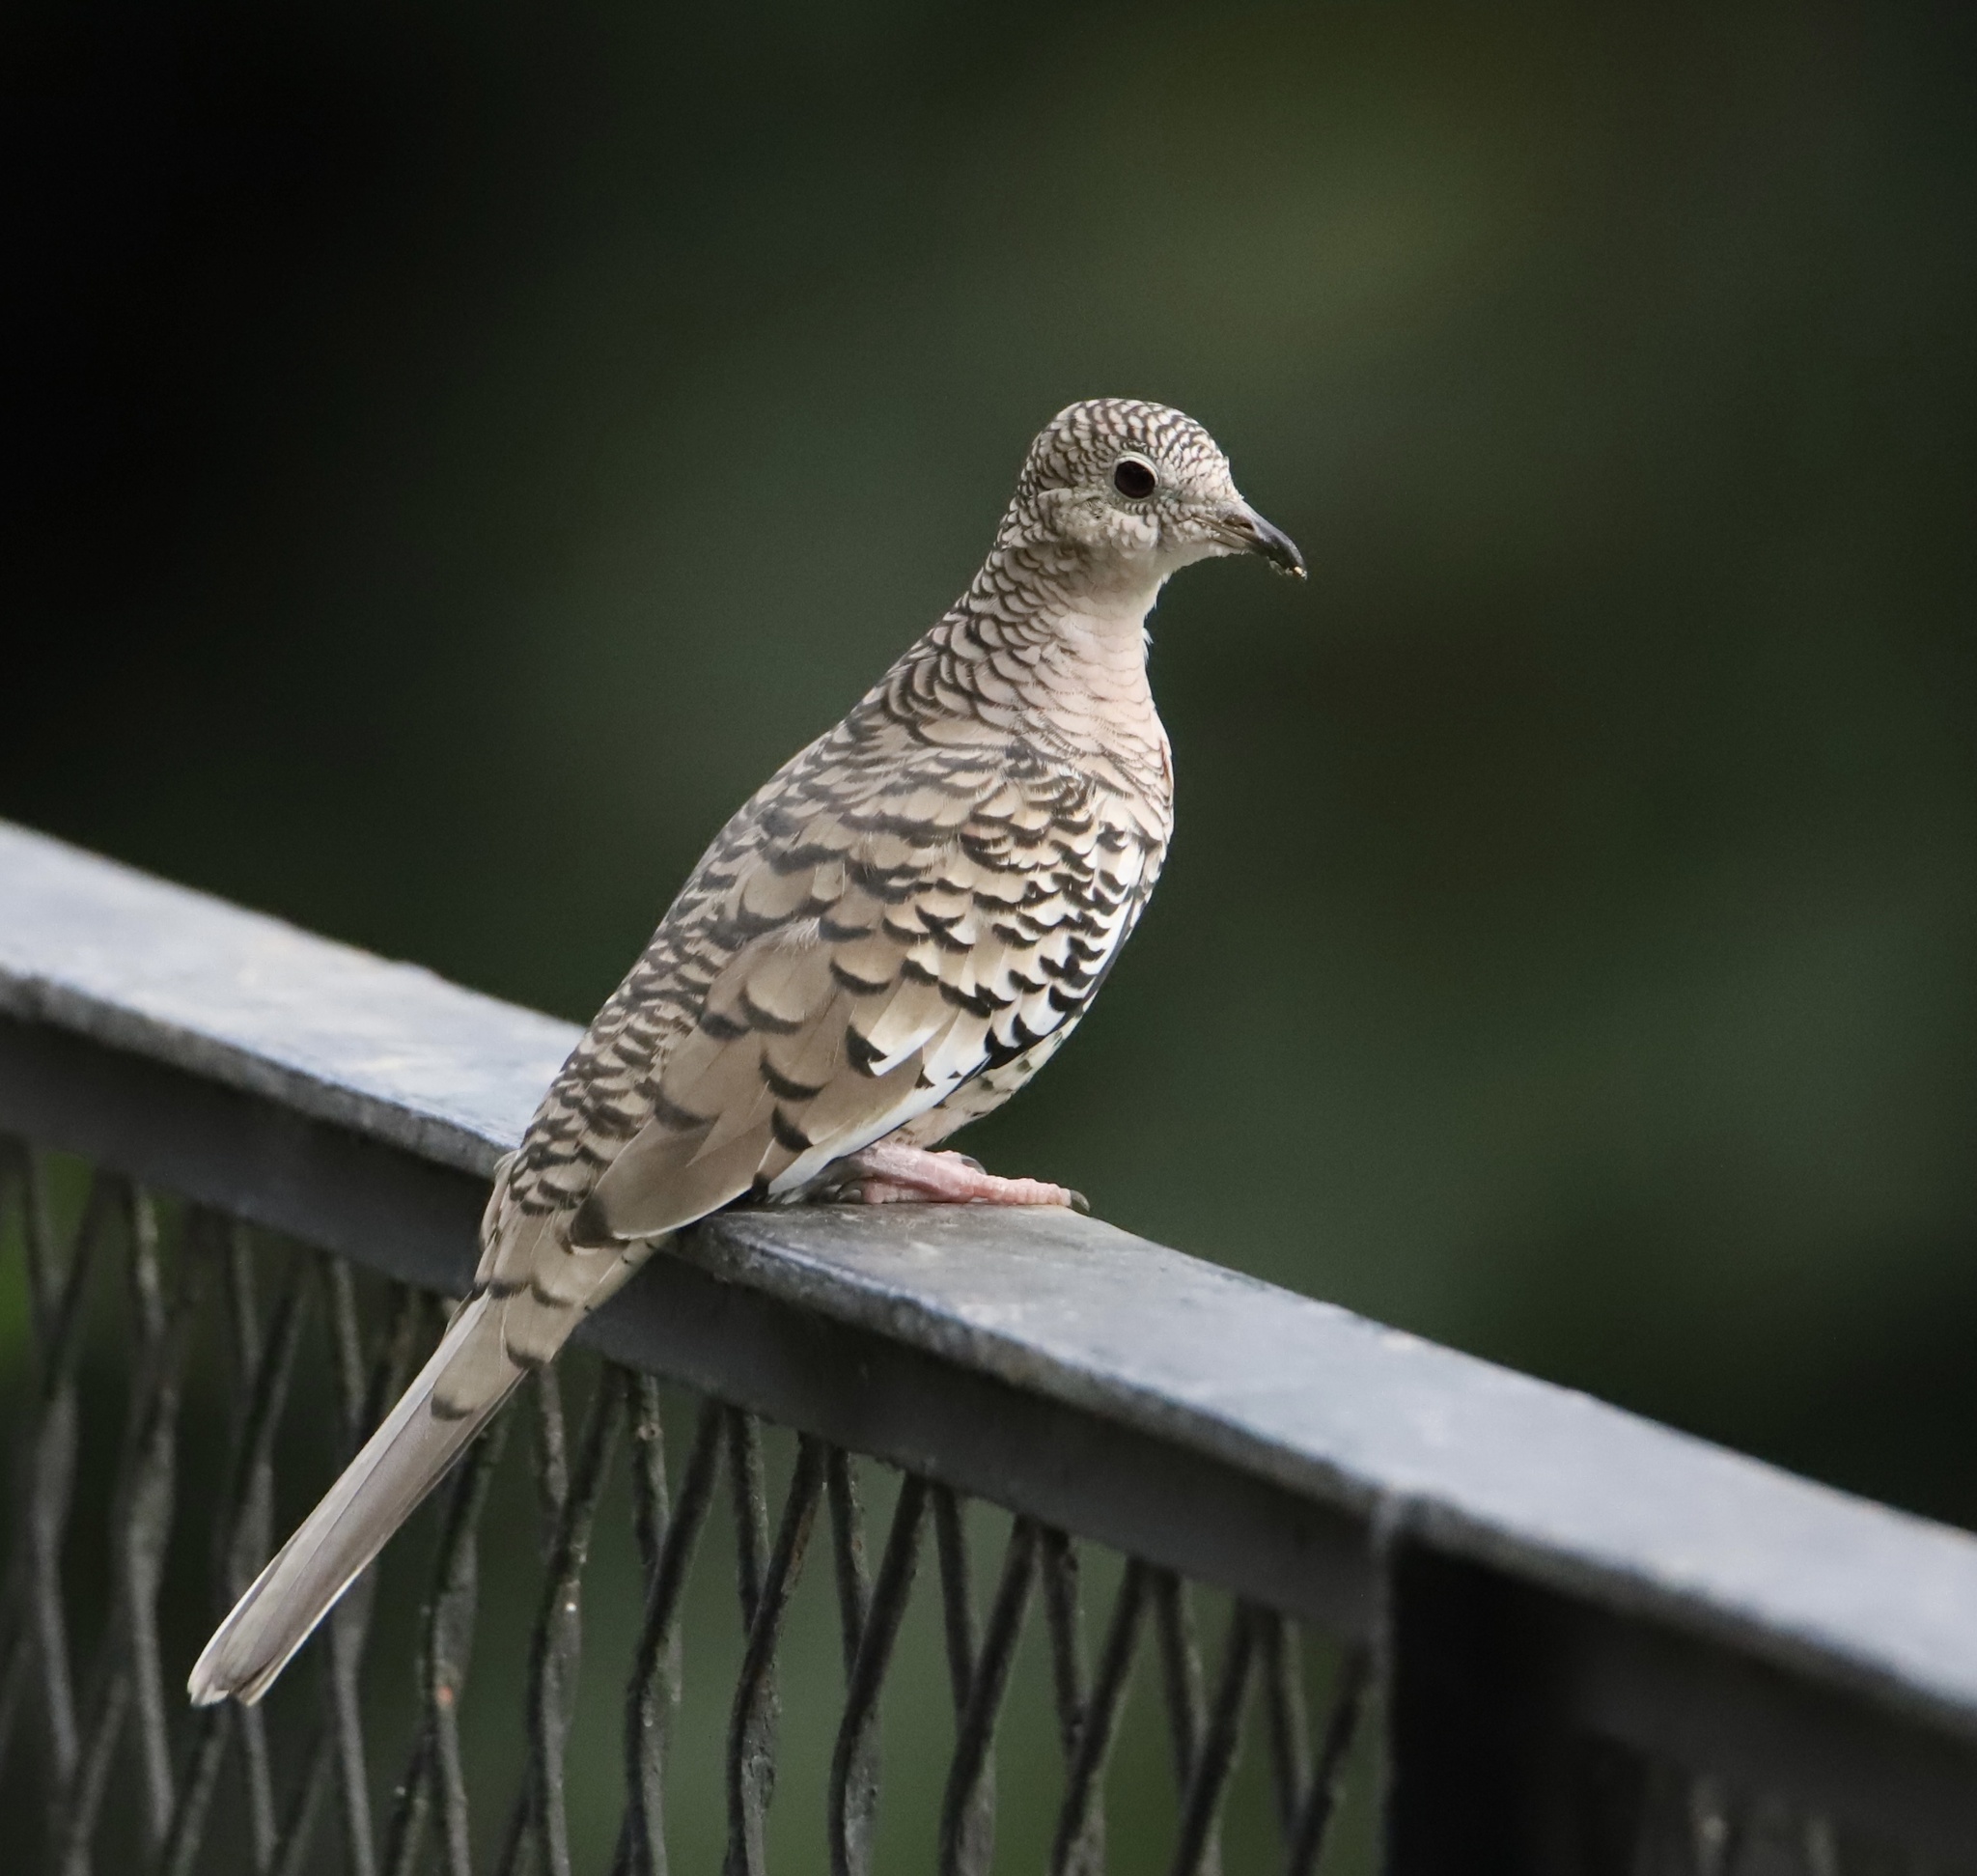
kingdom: Animalia
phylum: Chordata
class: Aves
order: Columbiformes
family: Columbidae
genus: Columbina
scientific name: Columbina squammata
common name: Scaled dove
